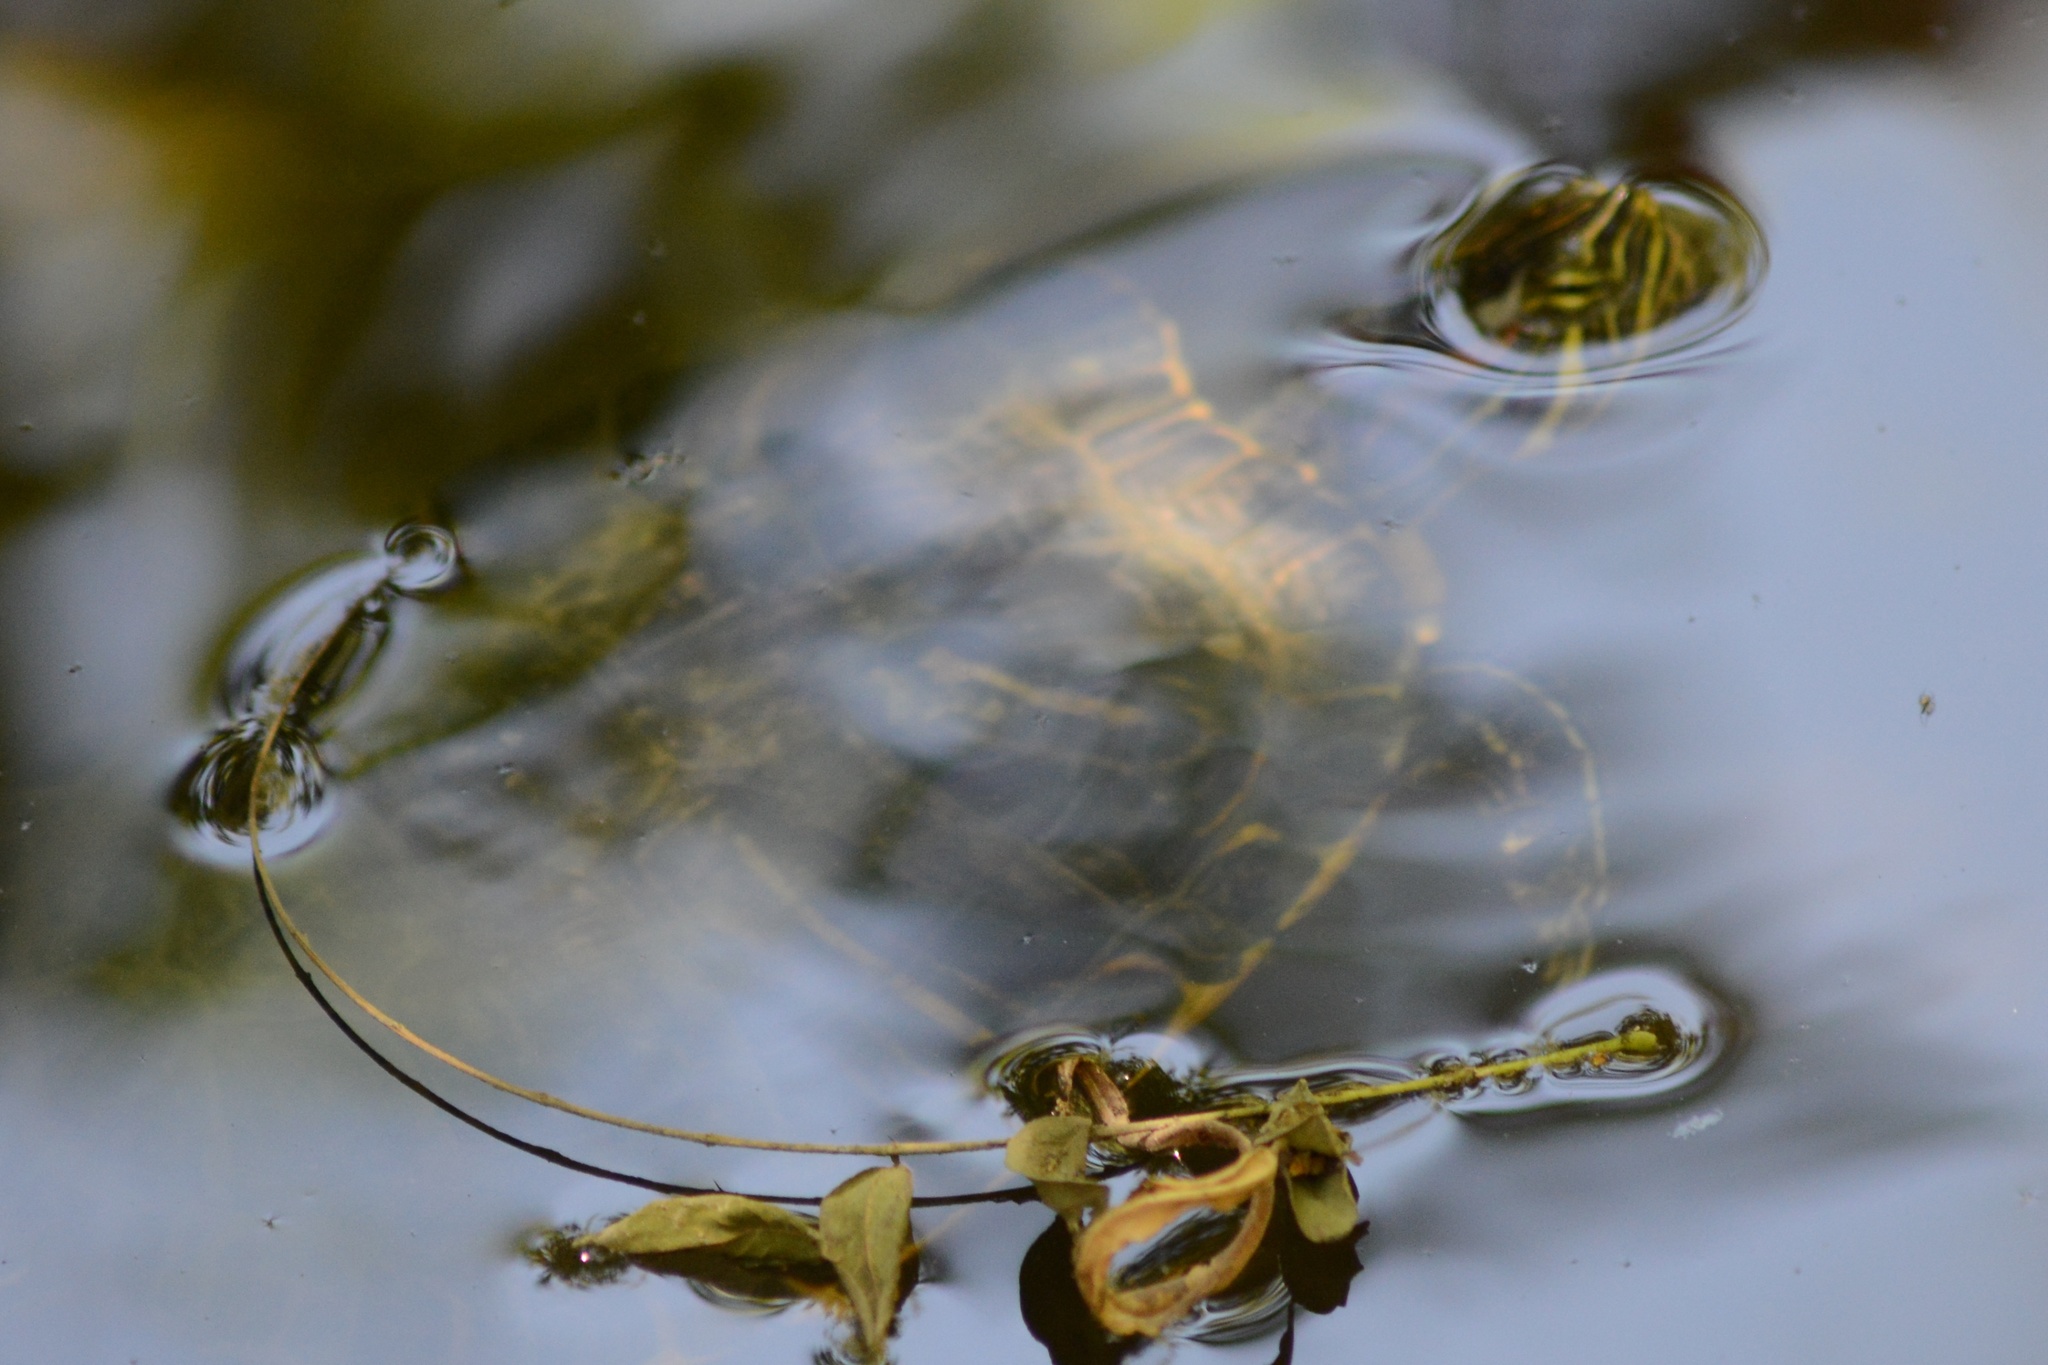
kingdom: Animalia
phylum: Chordata
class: Testudines
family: Emydidae
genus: Trachemys
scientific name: Trachemys scripta
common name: Slider
